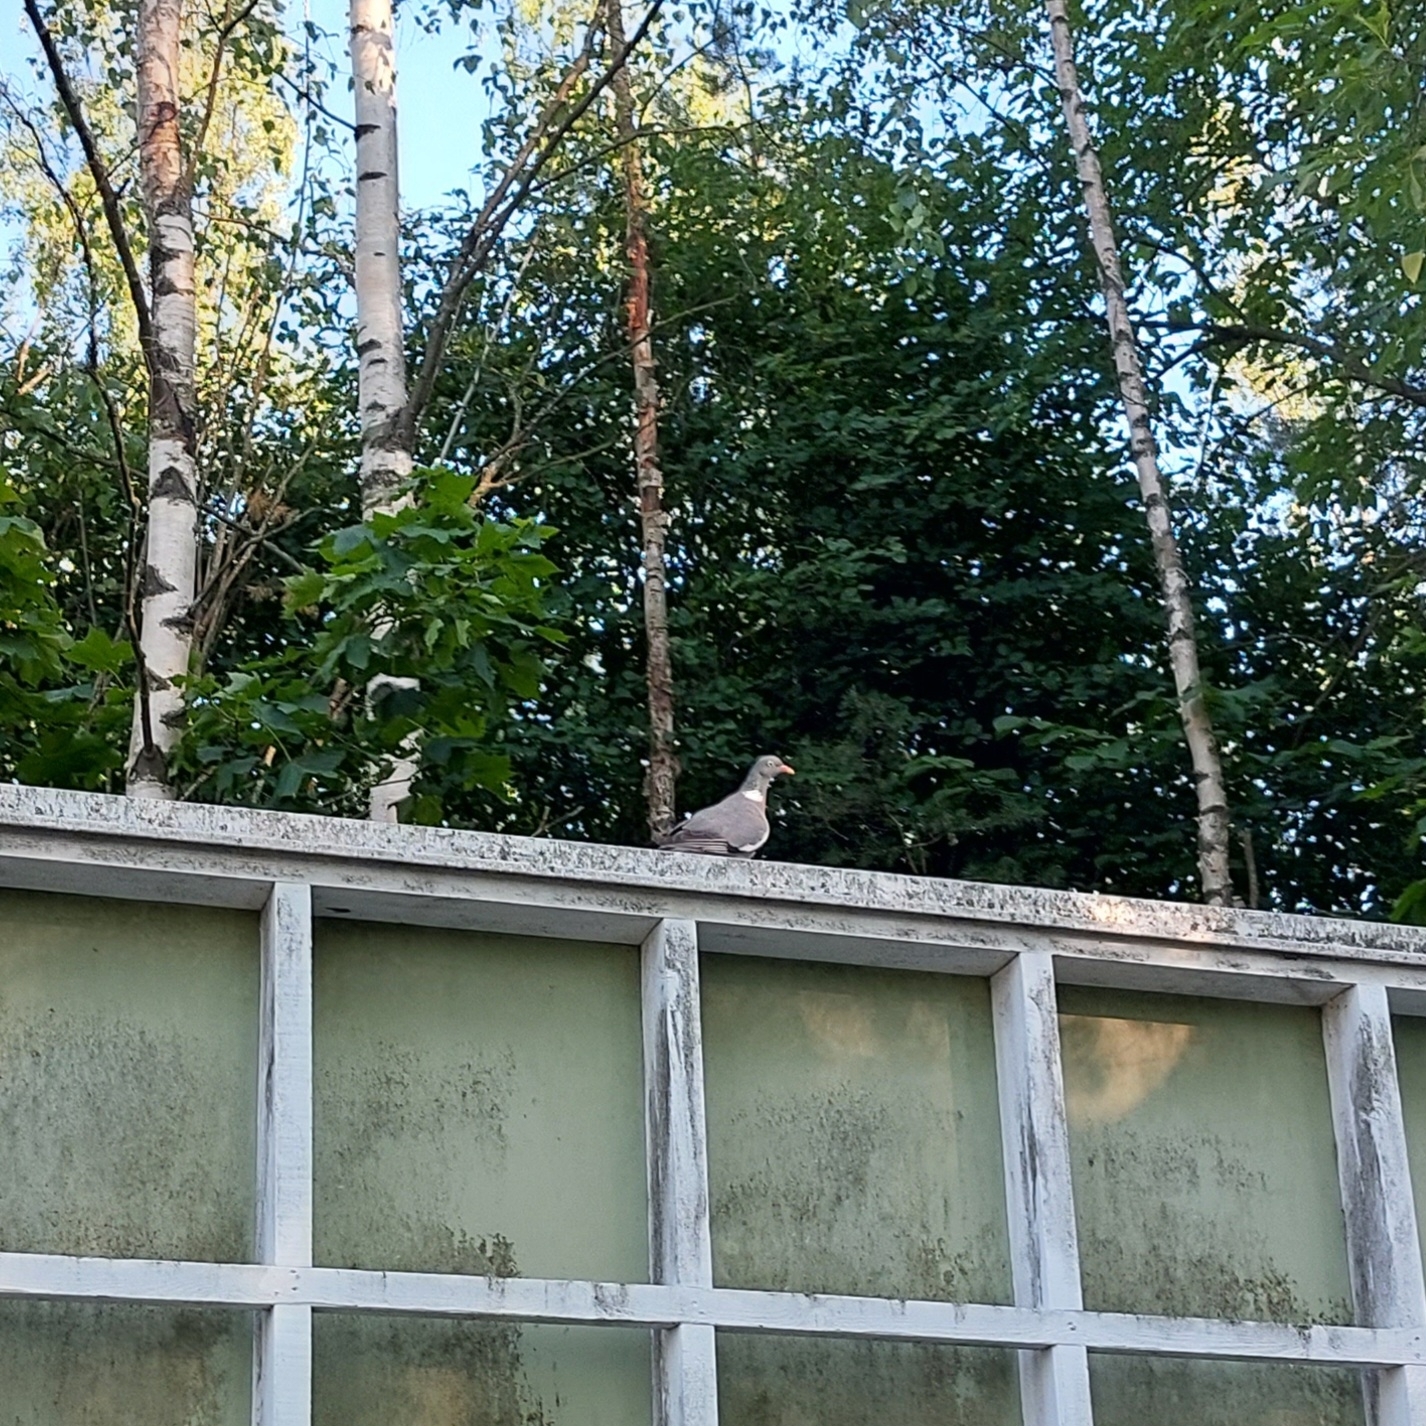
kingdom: Animalia
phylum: Chordata
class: Aves
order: Columbiformes
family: Columbidae
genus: Columba
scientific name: Columba palumbus
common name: Common wood pigeon
